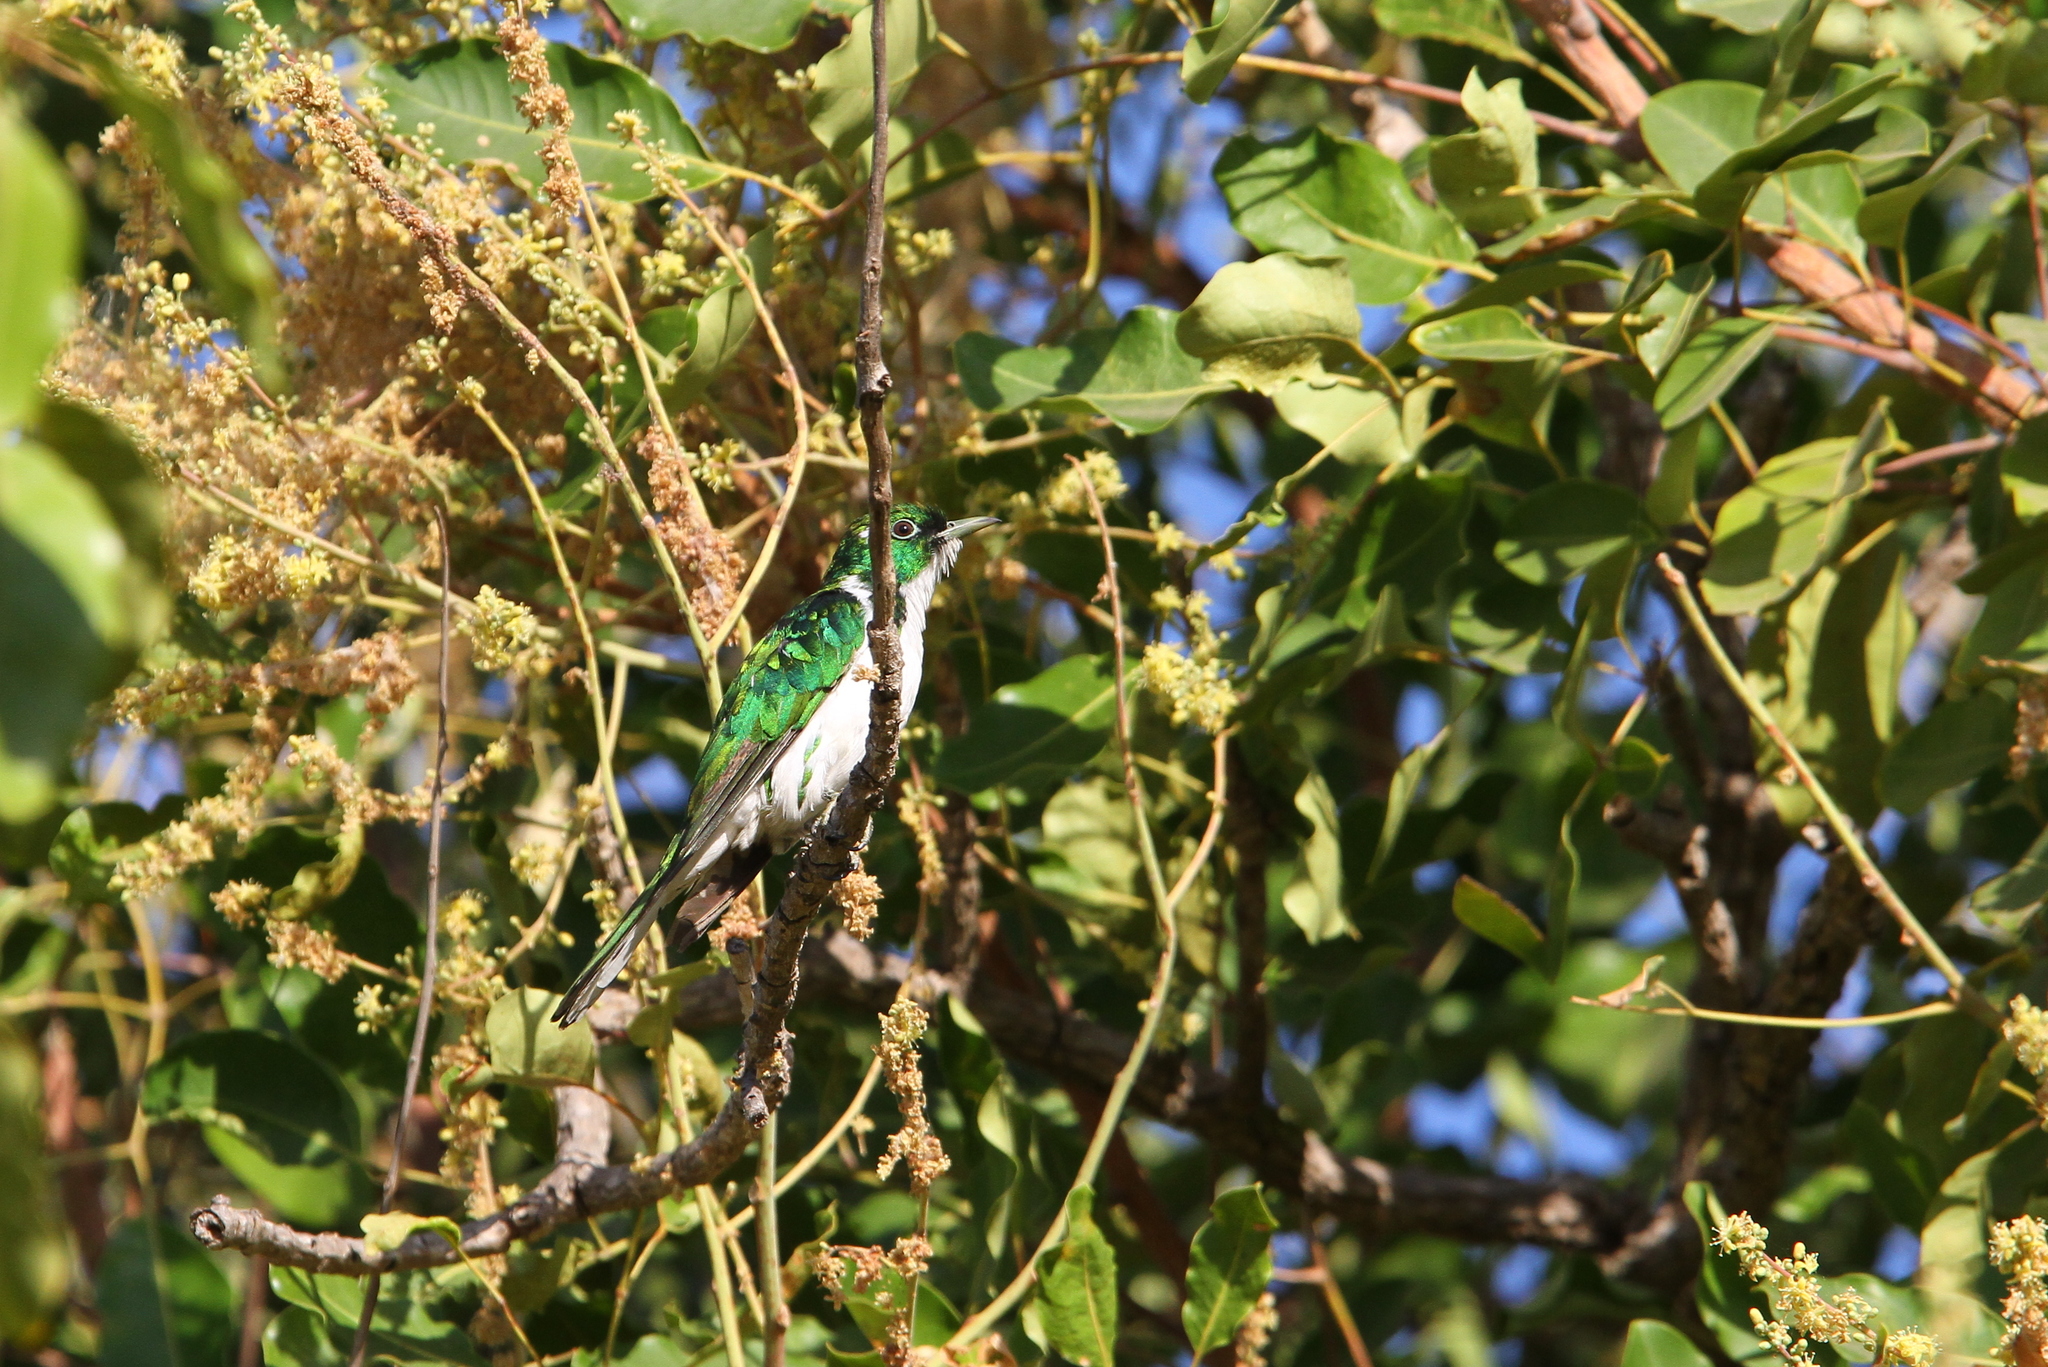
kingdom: Animalia
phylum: Chordata
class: Aves
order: Cuculiformes
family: Cuculidae
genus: Chrysococcyx
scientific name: Chrysococcyx klaas
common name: Klaas's cuckoo
